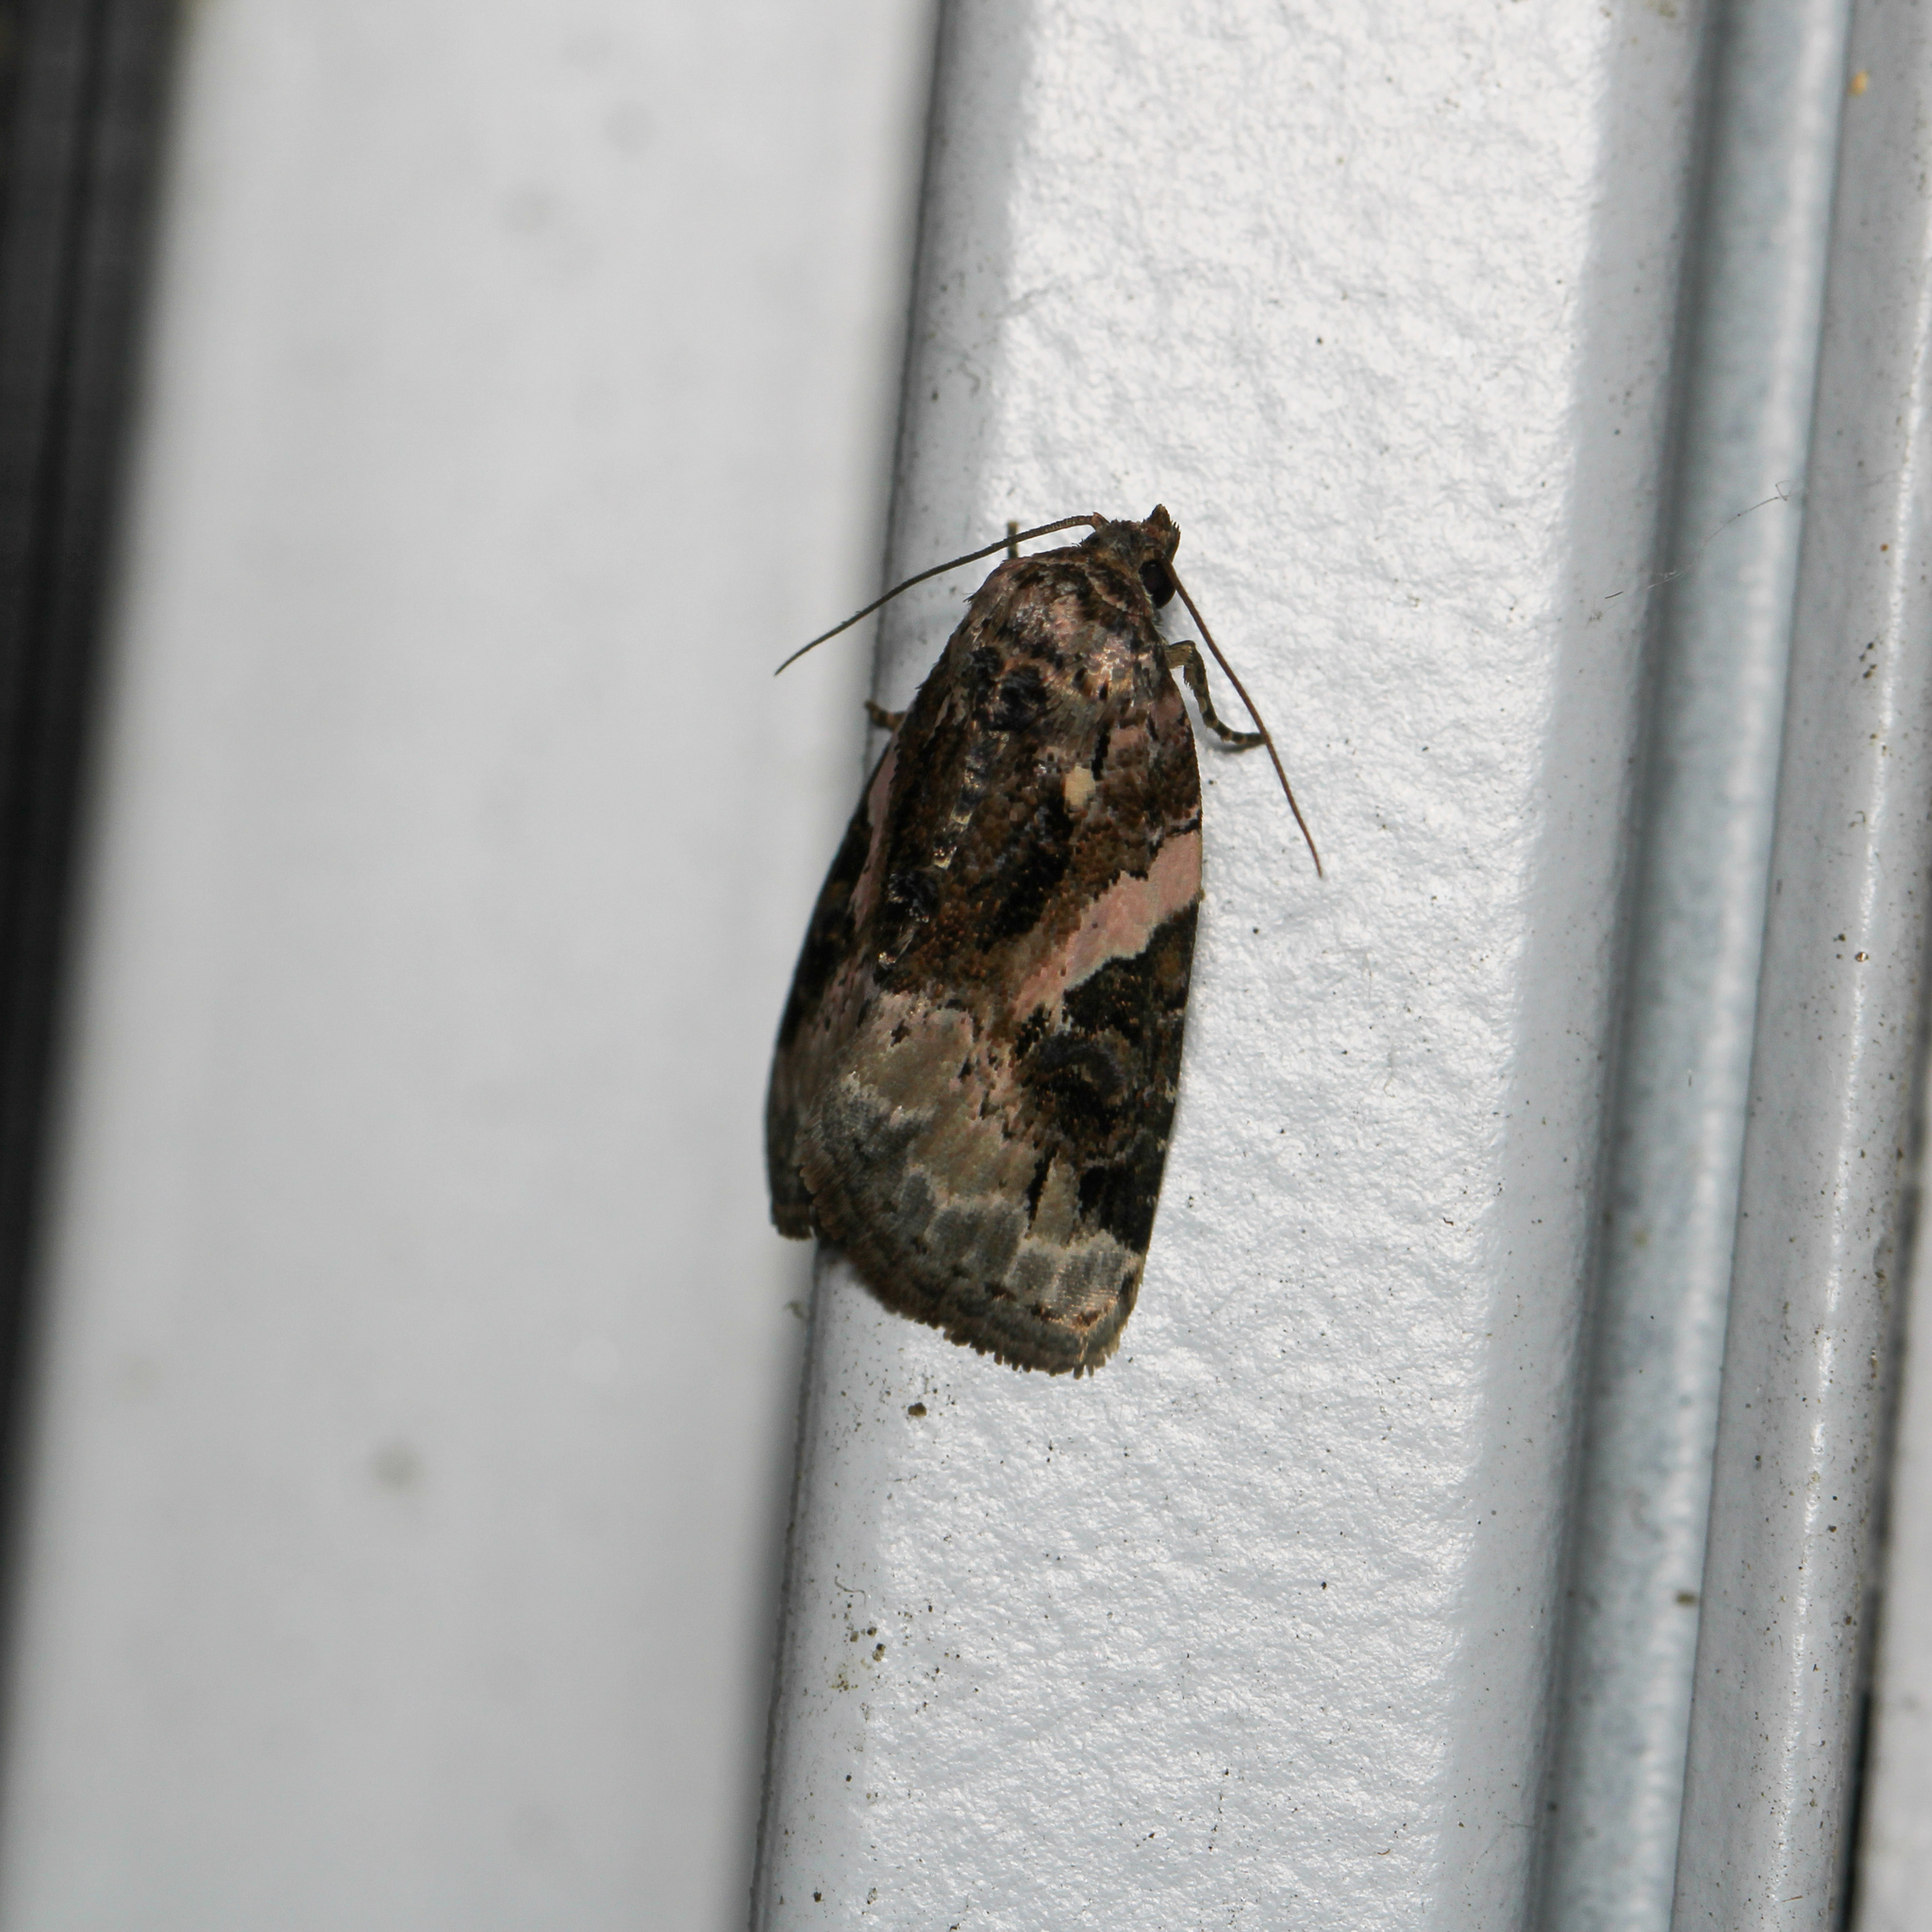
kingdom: Animalia
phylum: Arthropoda
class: Insecta
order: Lepidoptera
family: Noctuidae
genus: Pseudeustrotia
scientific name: Pseudeustrotia carneola
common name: Pink-barred lithacodia moth
